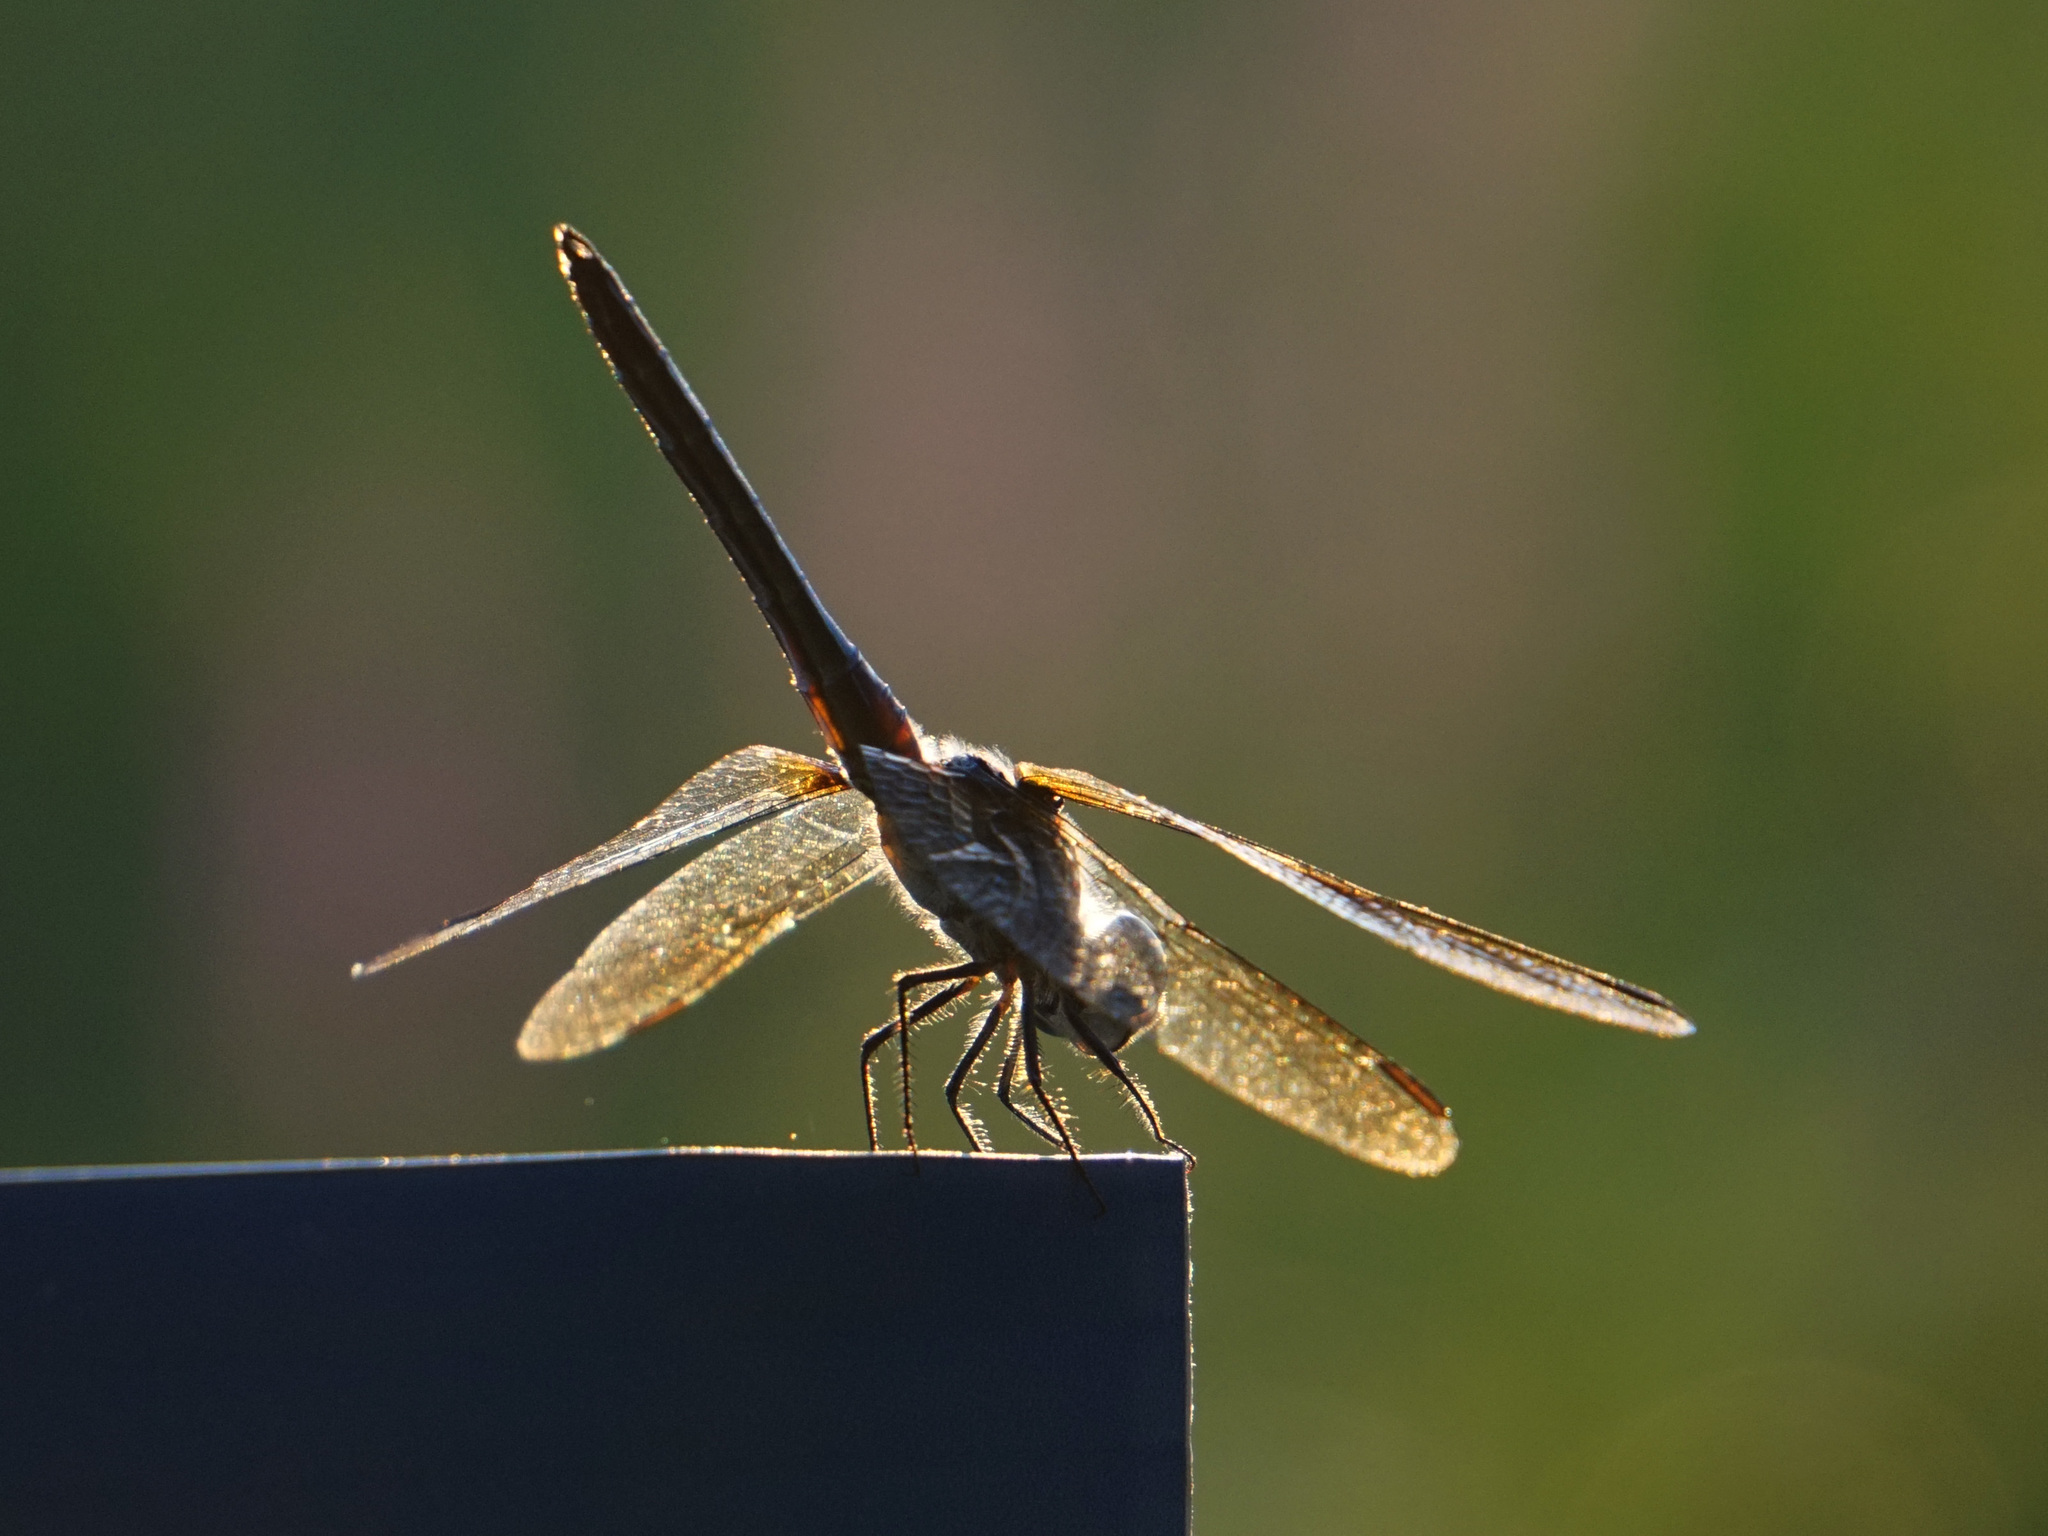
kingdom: Animalia
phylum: Arthropoda
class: Insecta
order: Odonata
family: Libellulidae
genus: Pachydiplax
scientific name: Pachydiplax longipennis
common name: Blue dasher
